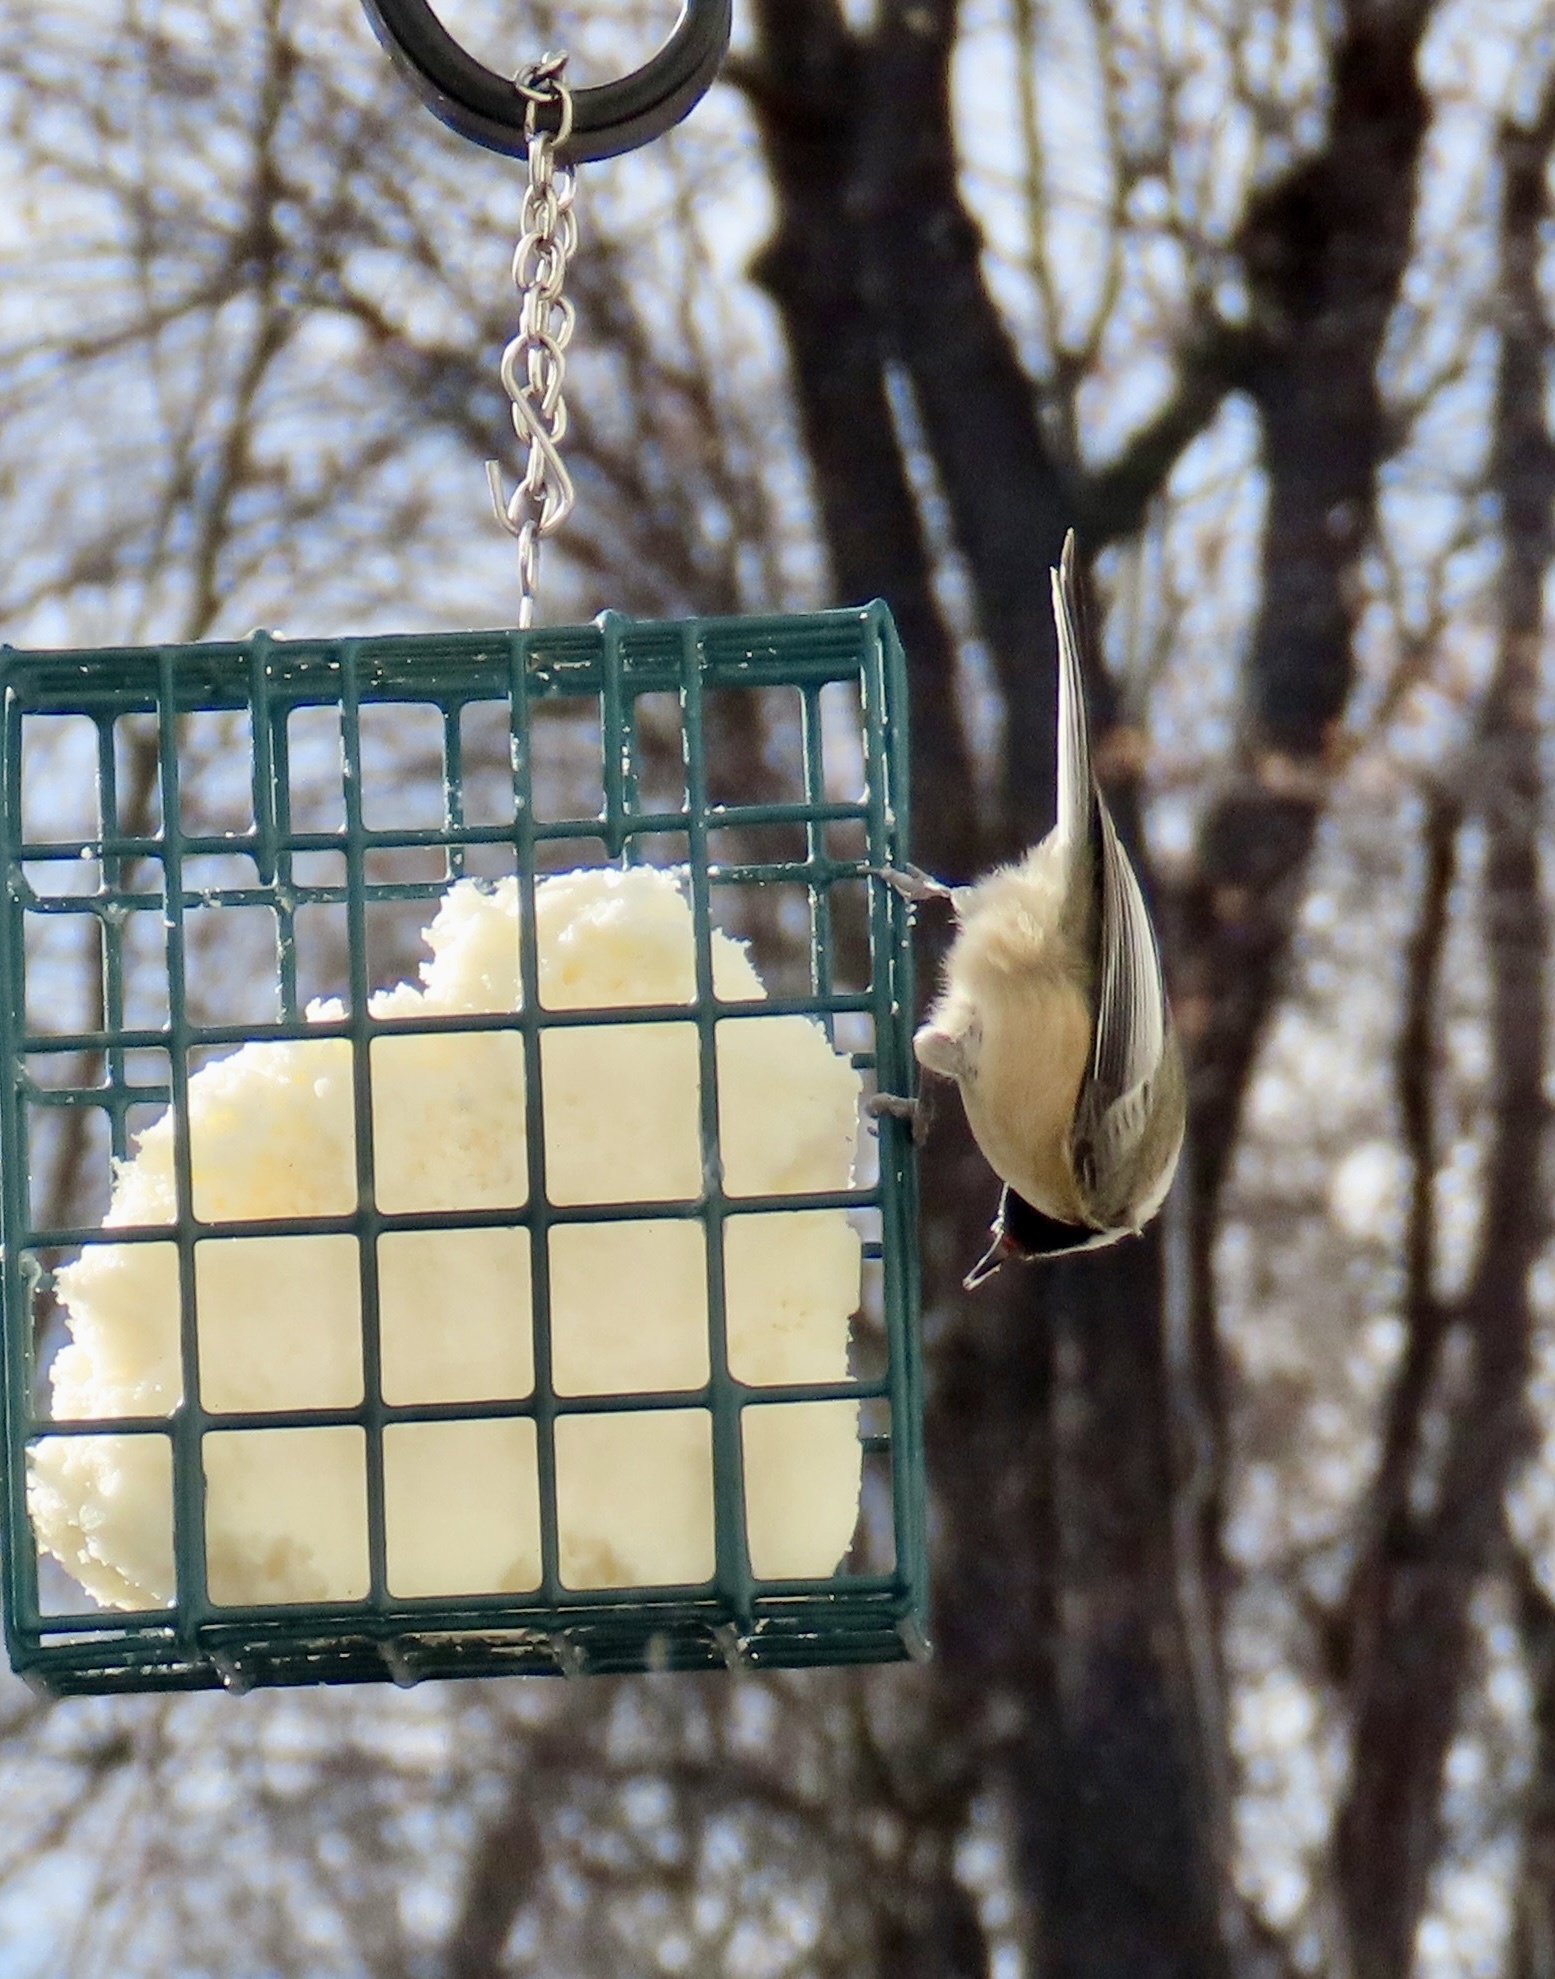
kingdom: Animalia
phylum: Chordata
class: Aves
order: Passeriformes
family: Paridae
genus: Poecile
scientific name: Poecile atricapillus
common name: Black-capped chickadee
